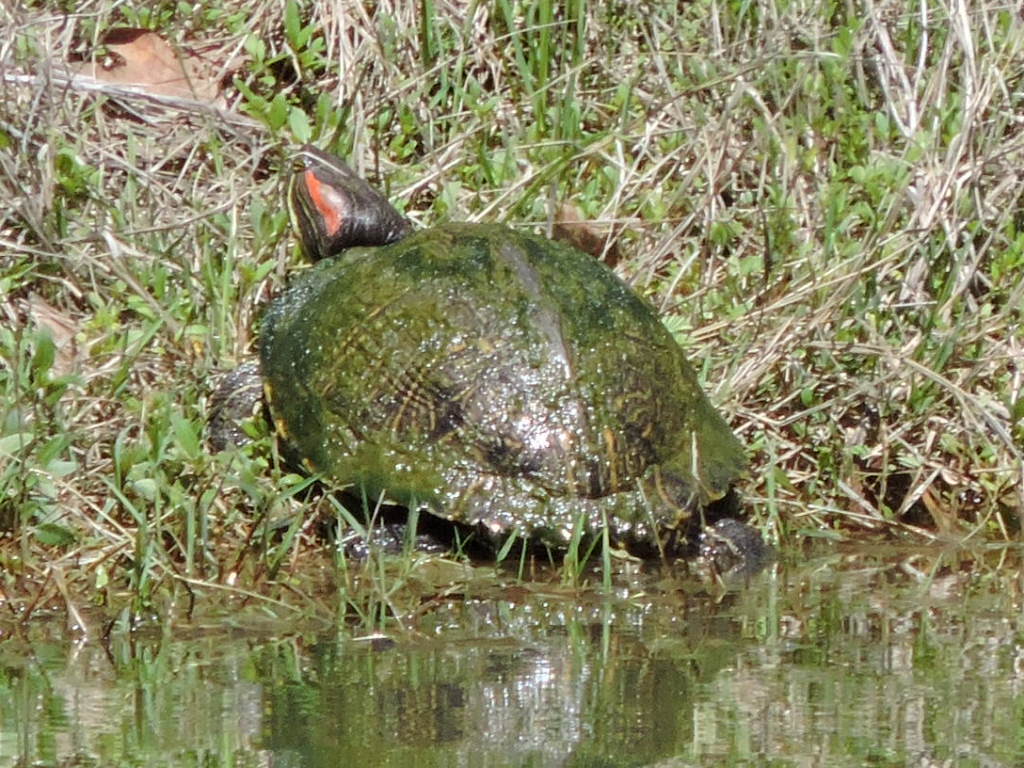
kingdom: Animalia
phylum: Chordata
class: Testudines
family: Emydidae
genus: Trachemys
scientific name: Trachemys scripta
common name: Slider
